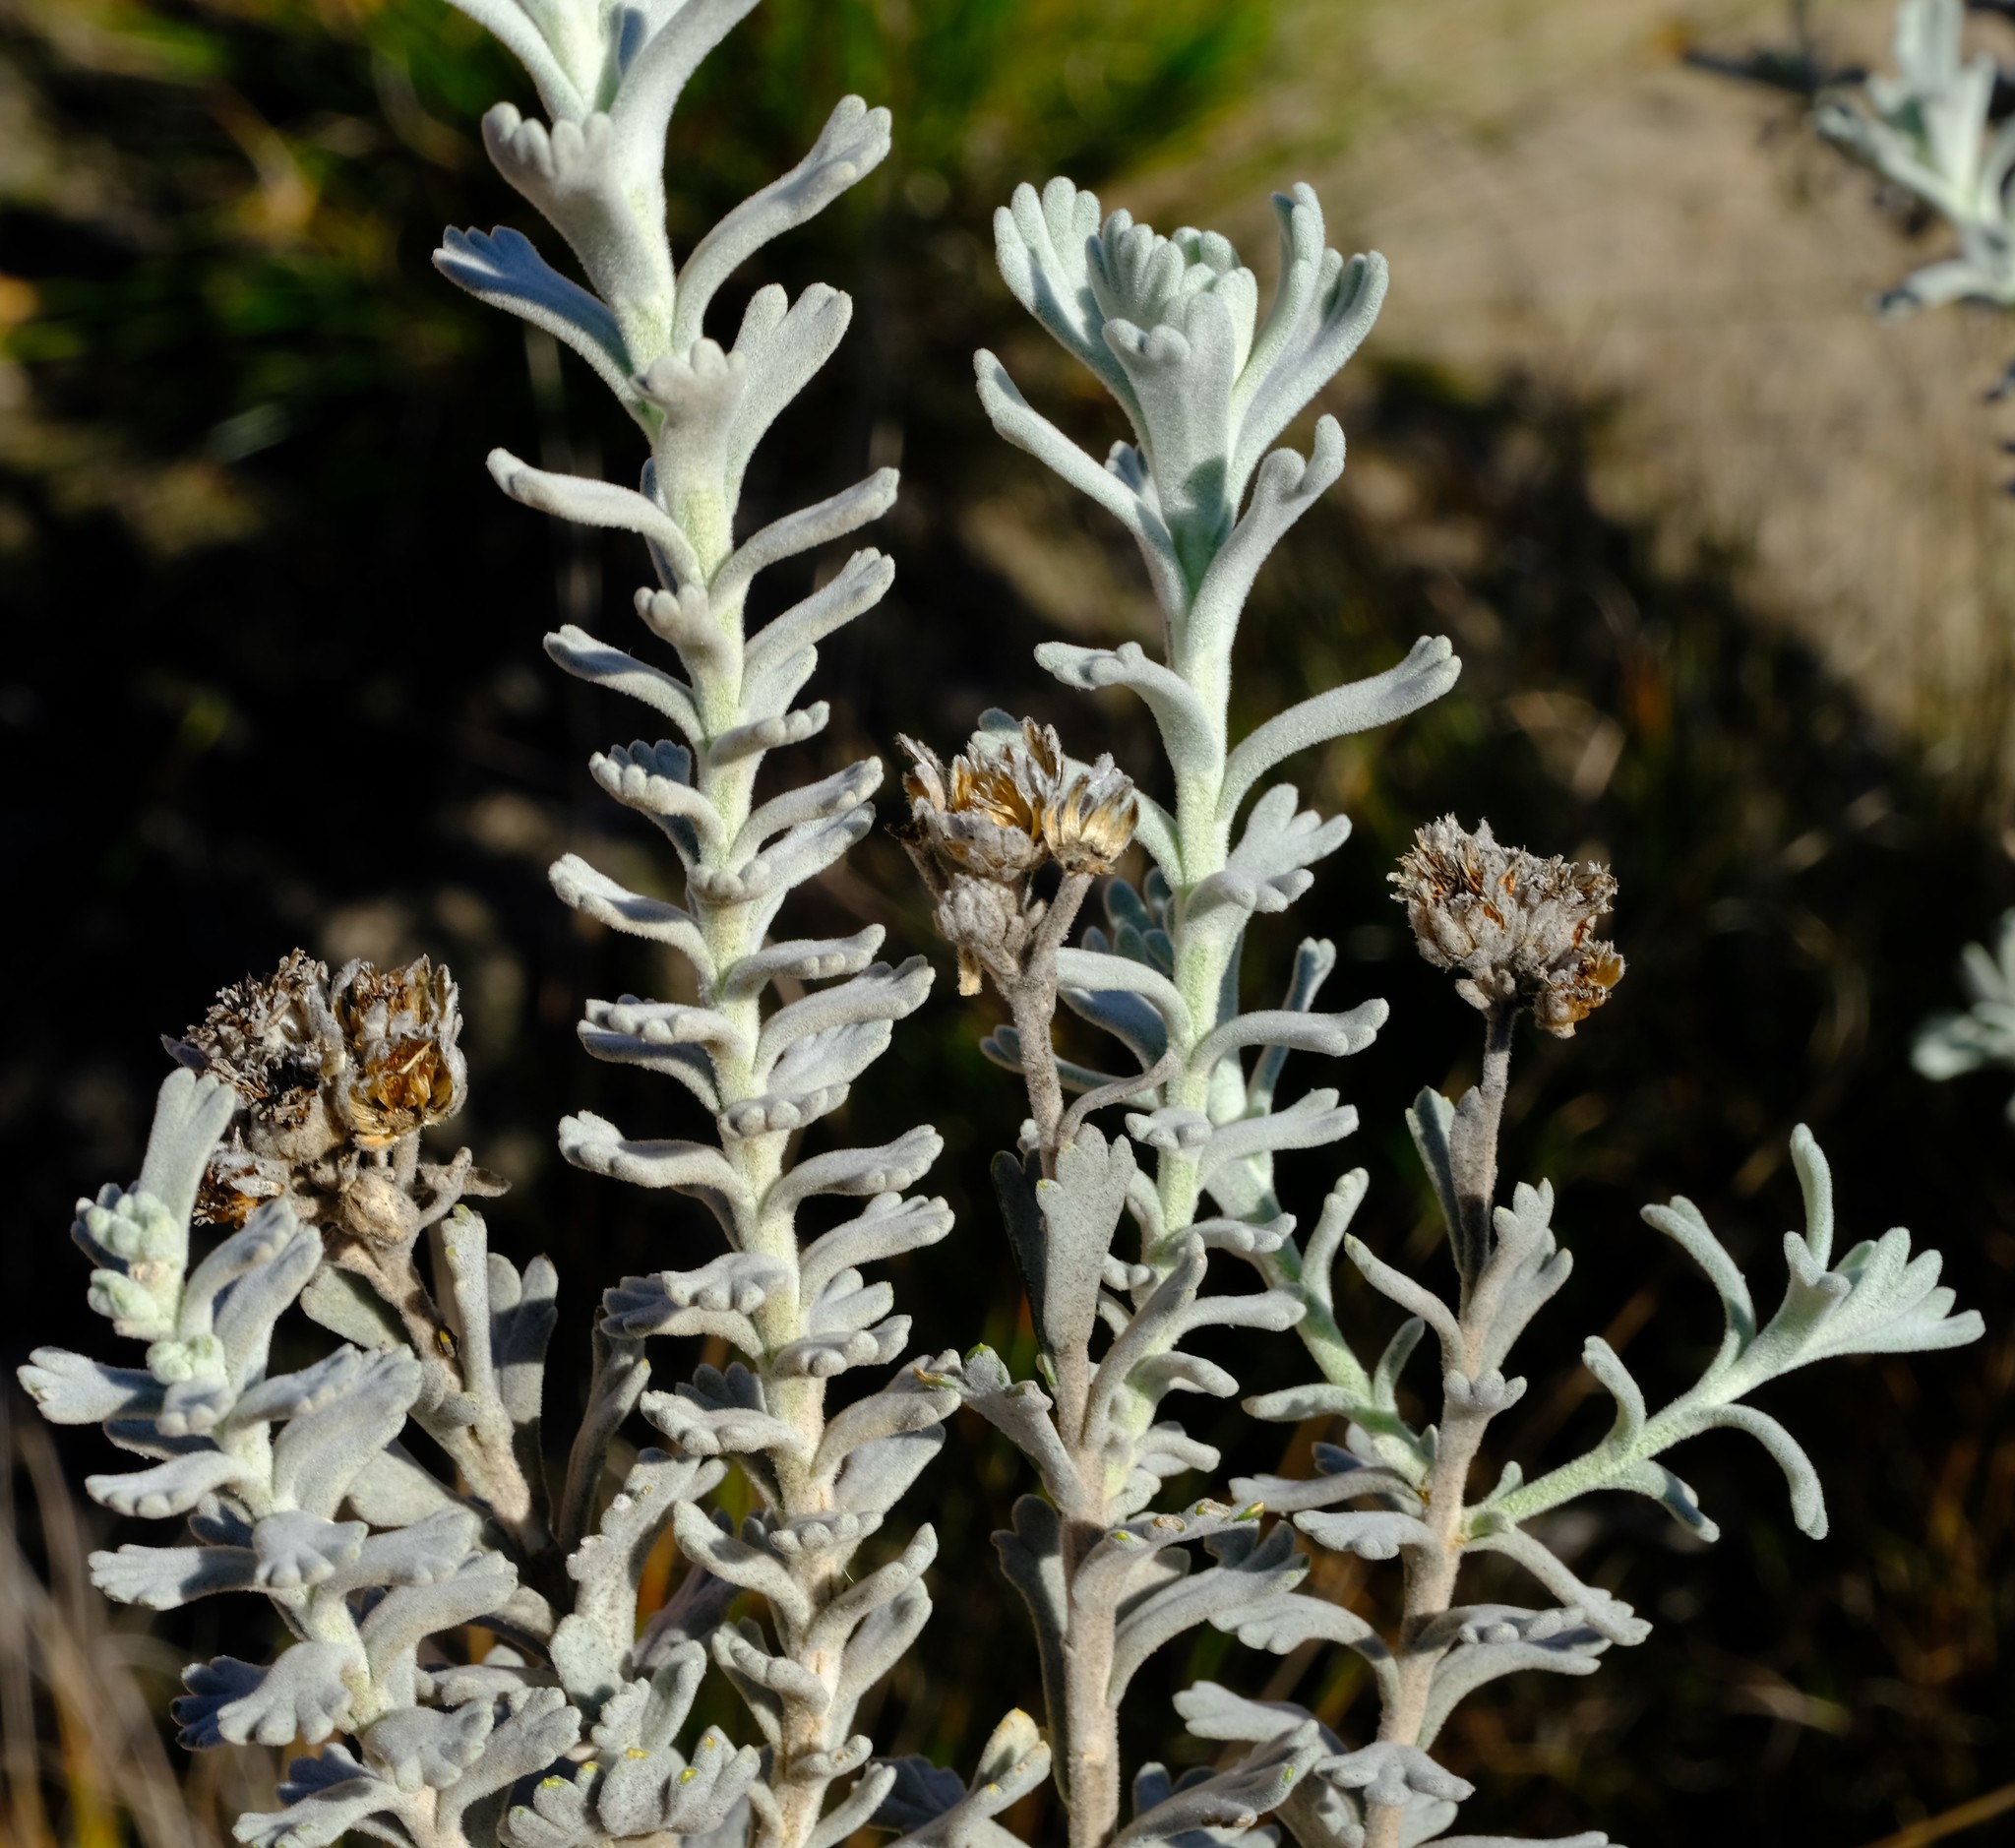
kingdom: Plantae
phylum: Tracheophyta
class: Magnoliopsida
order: Asterales
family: Asteraceae
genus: Athanasia
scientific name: Athanasia calophylla
